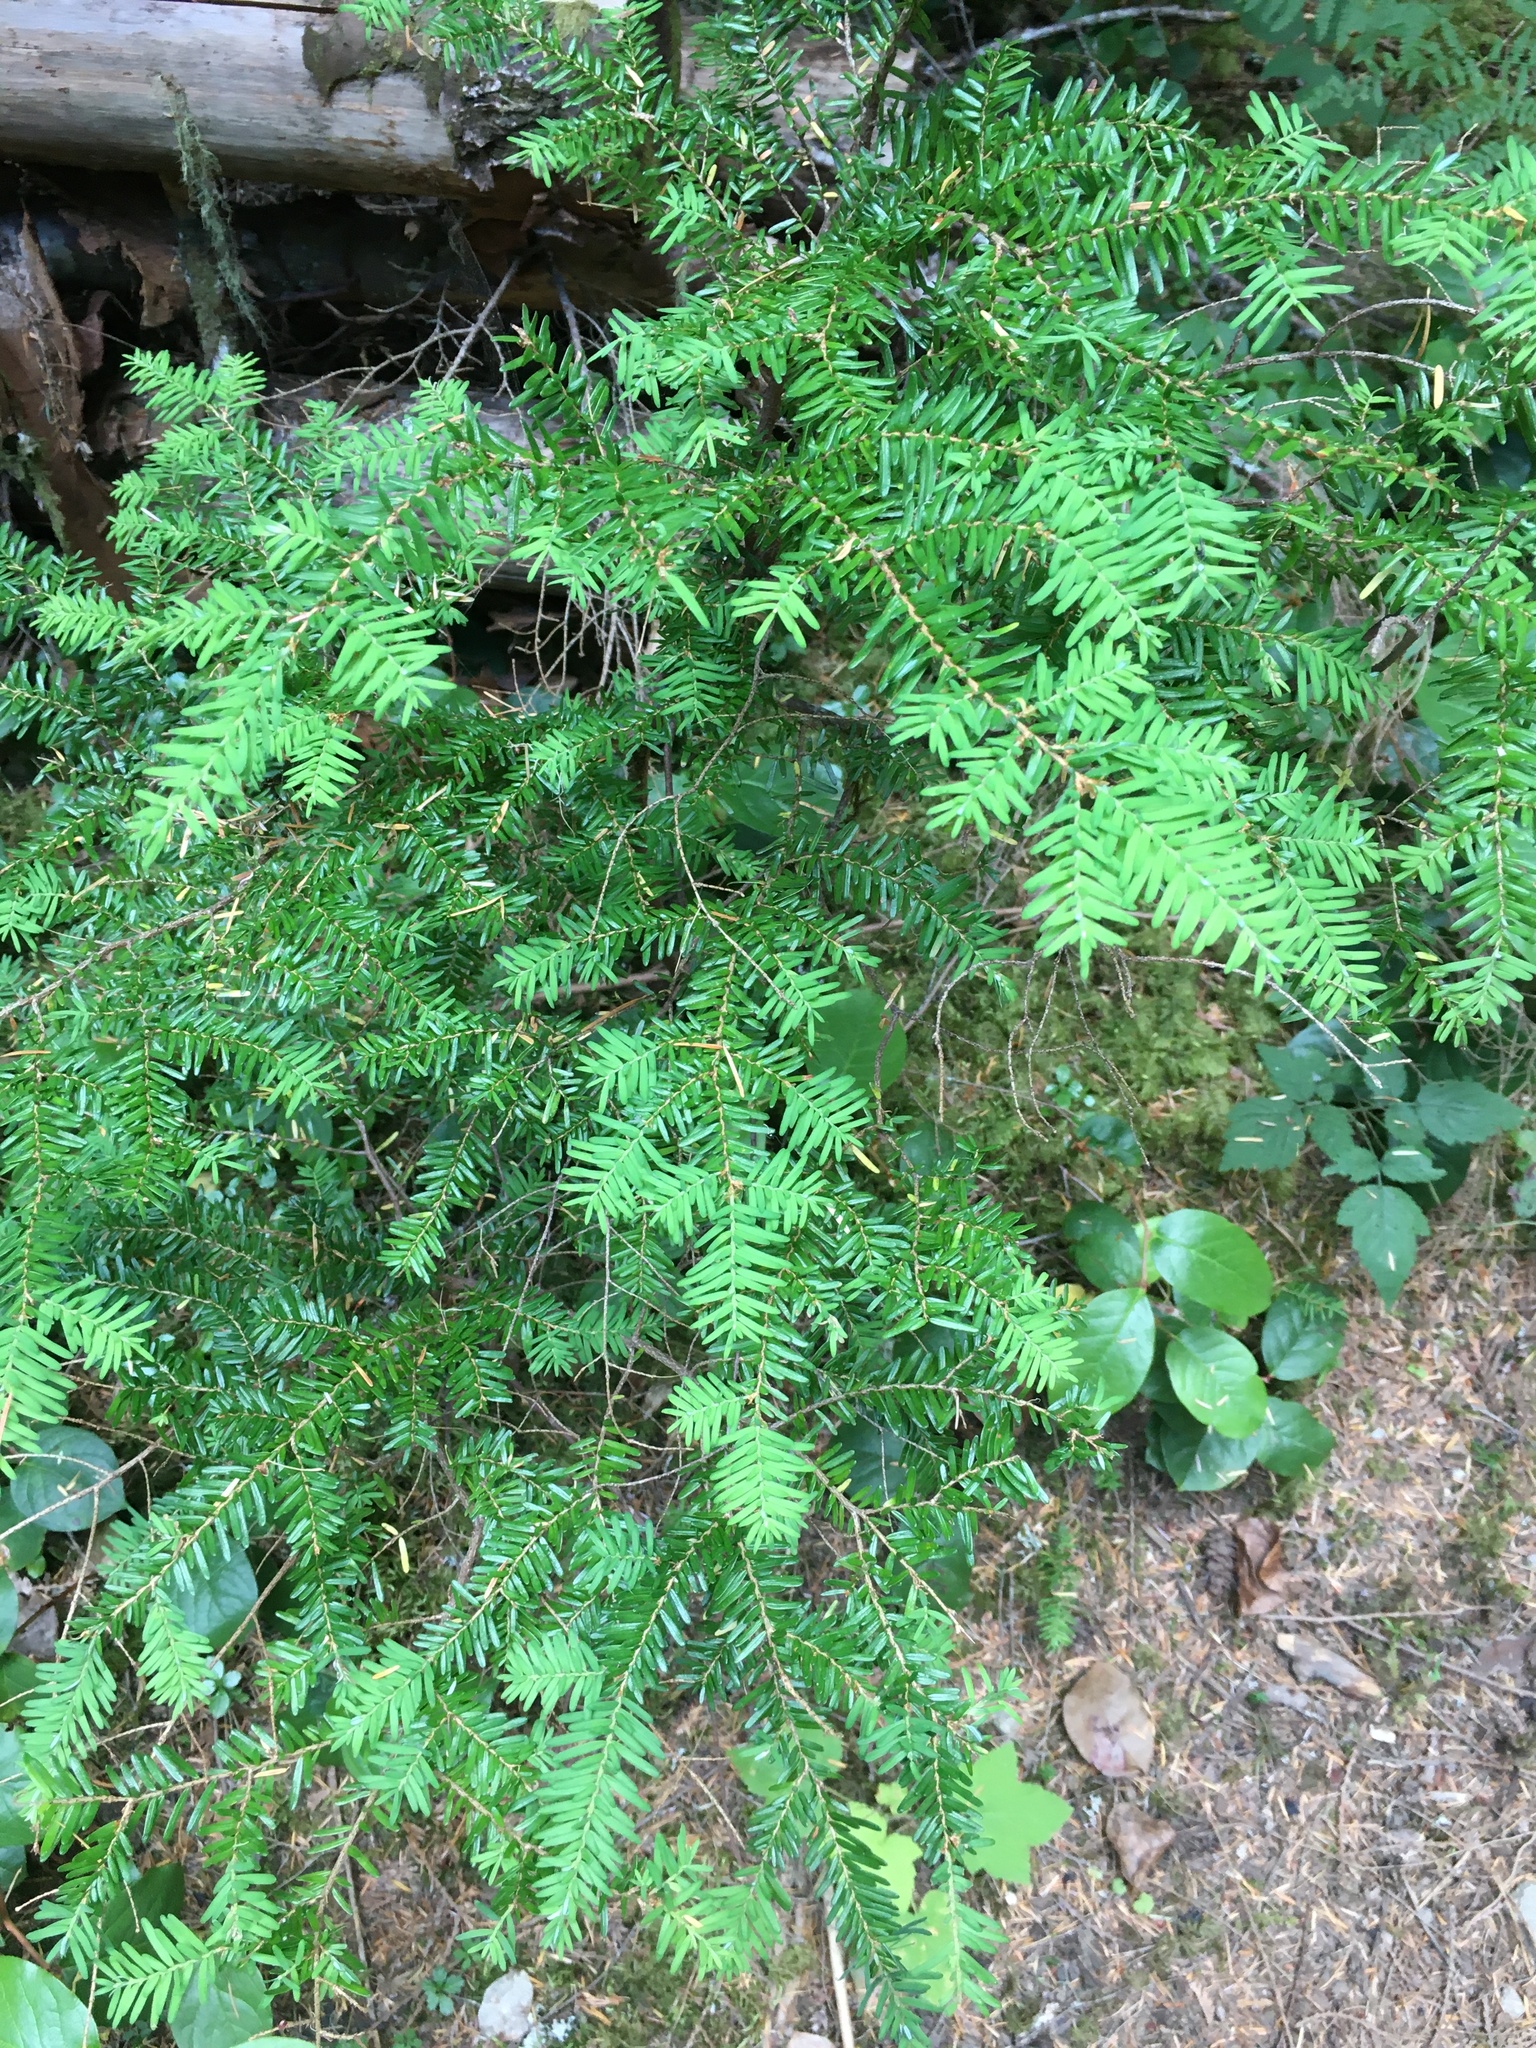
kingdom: Plantae
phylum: Tracheophyta
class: Pinopsida
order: Pinales
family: Pinaceae
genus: Tsuga
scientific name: Tsuga heterophylla
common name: Western hemlock
